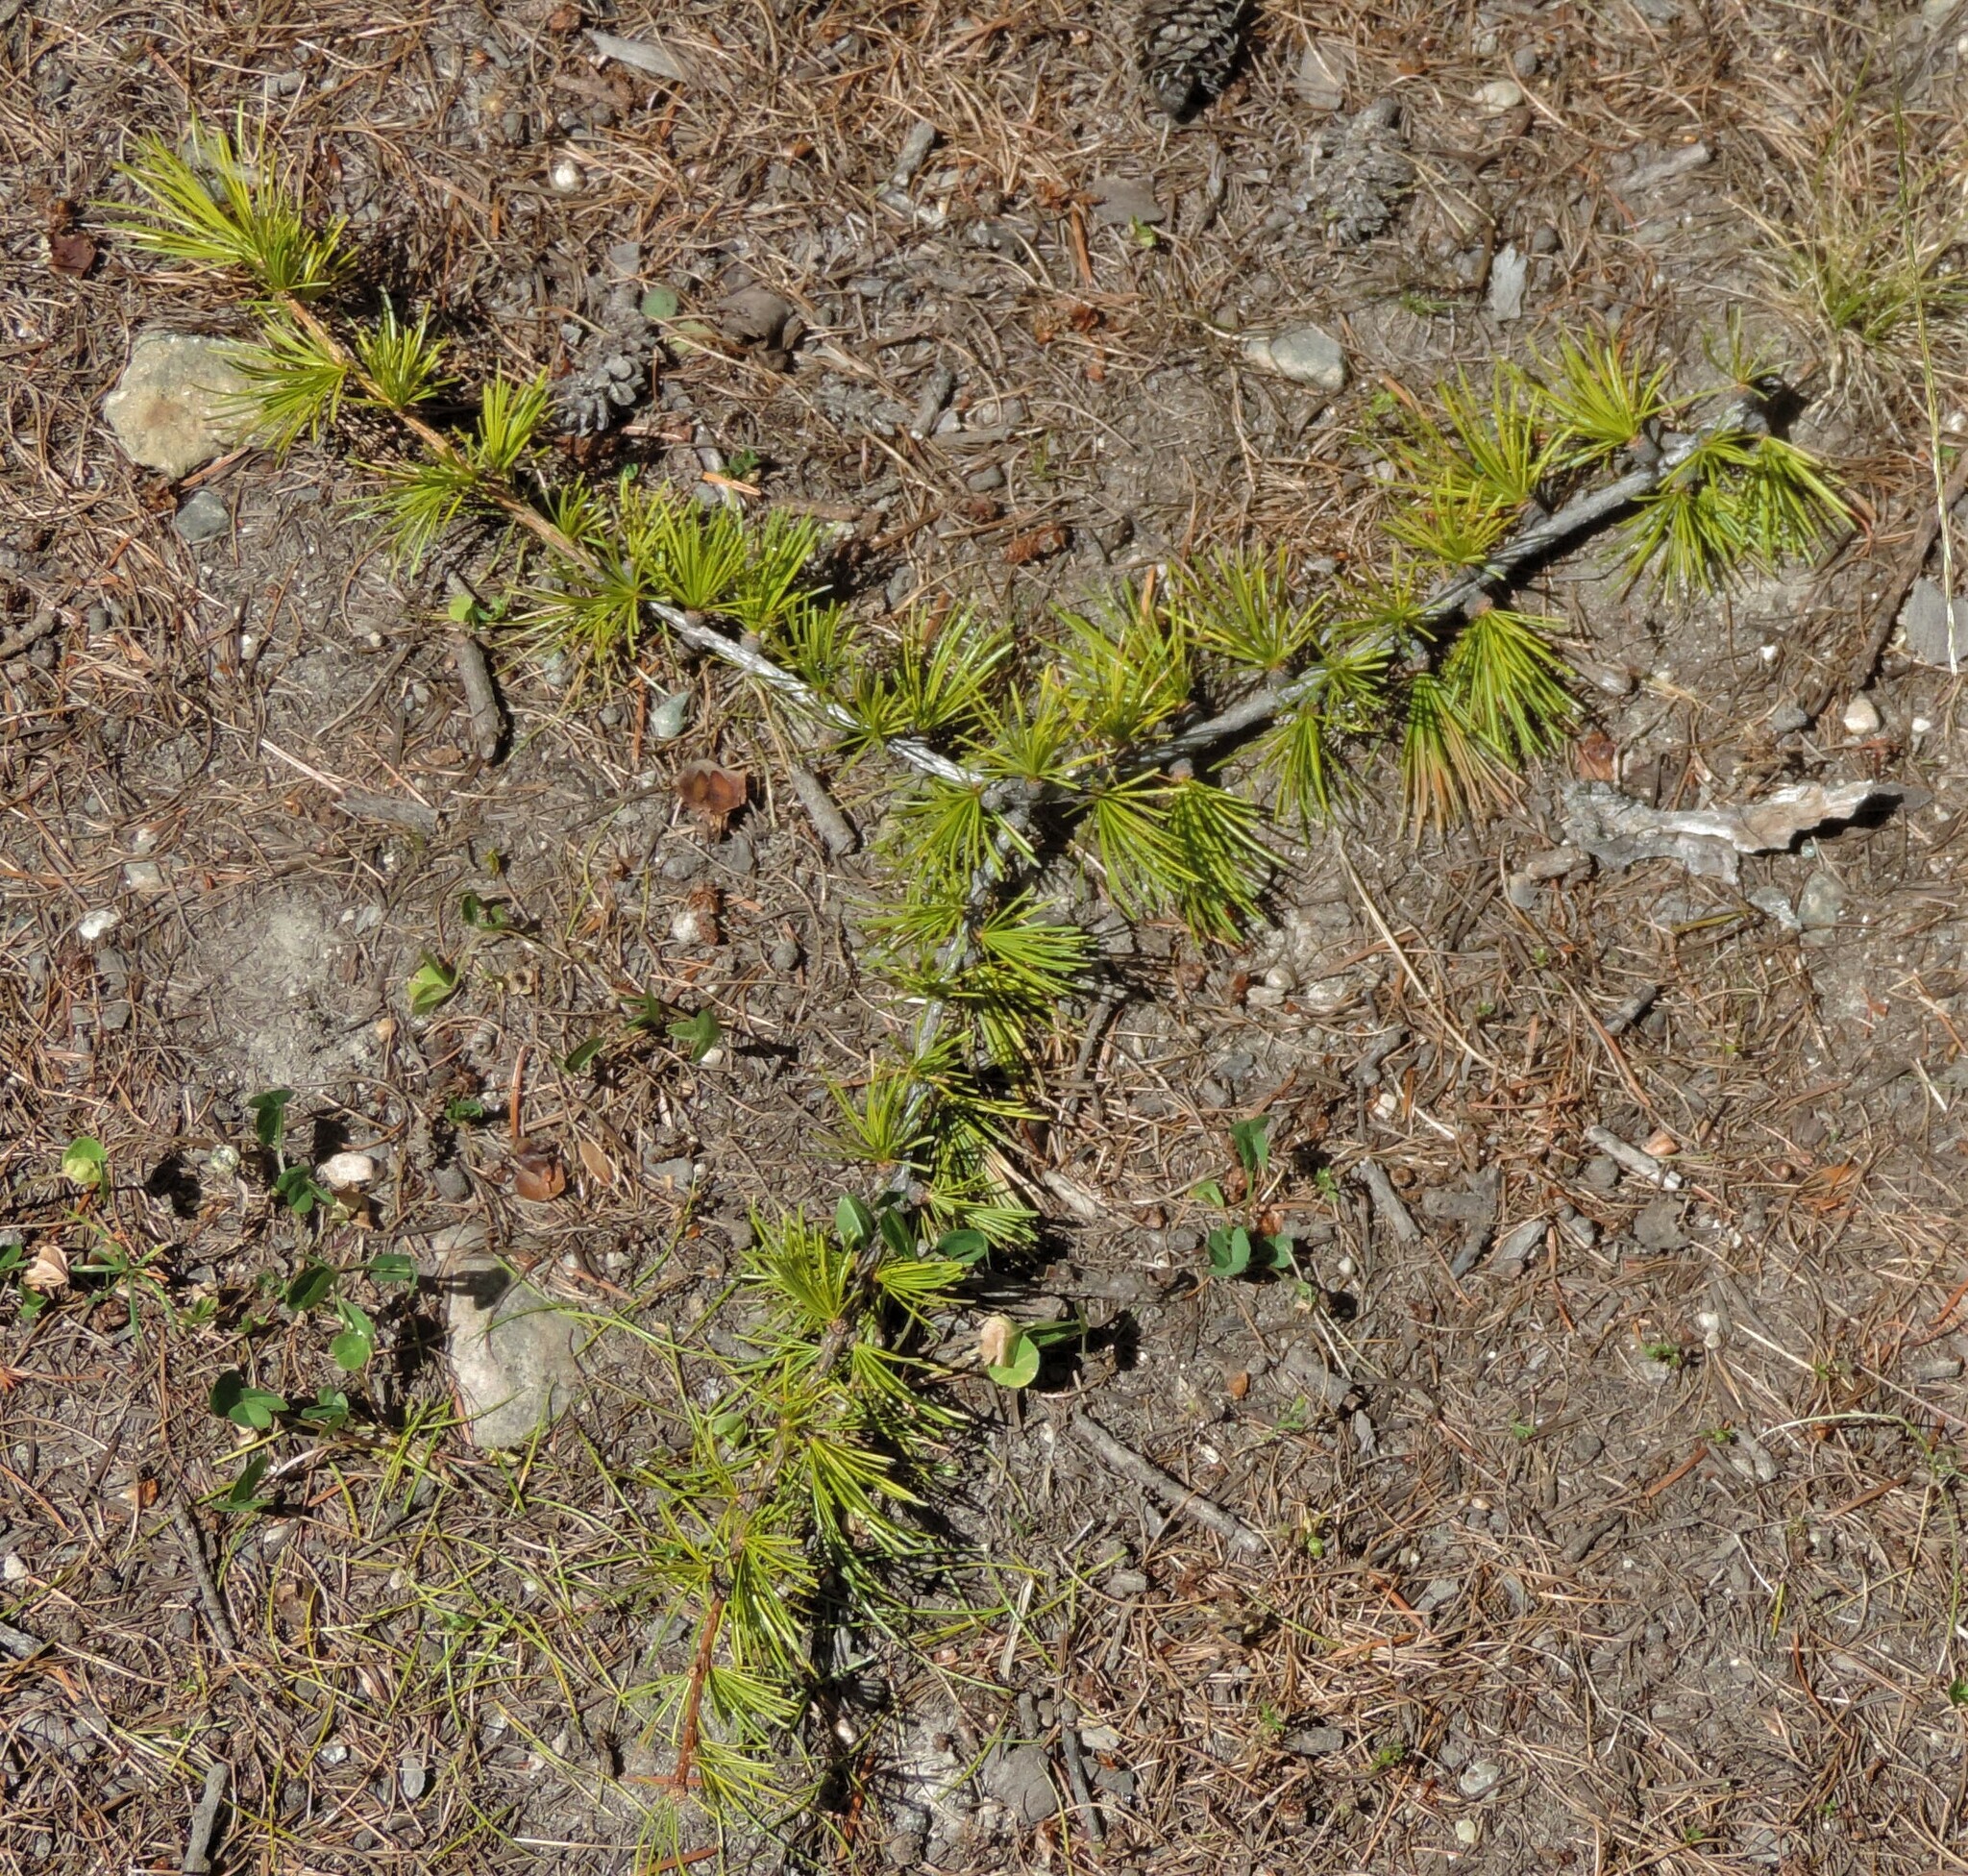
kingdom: Plantae
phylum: Tracheophyta
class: Pinopsida
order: Pinales
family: Pinaceae
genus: Larix
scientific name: Larix occidentalis
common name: Western larch
